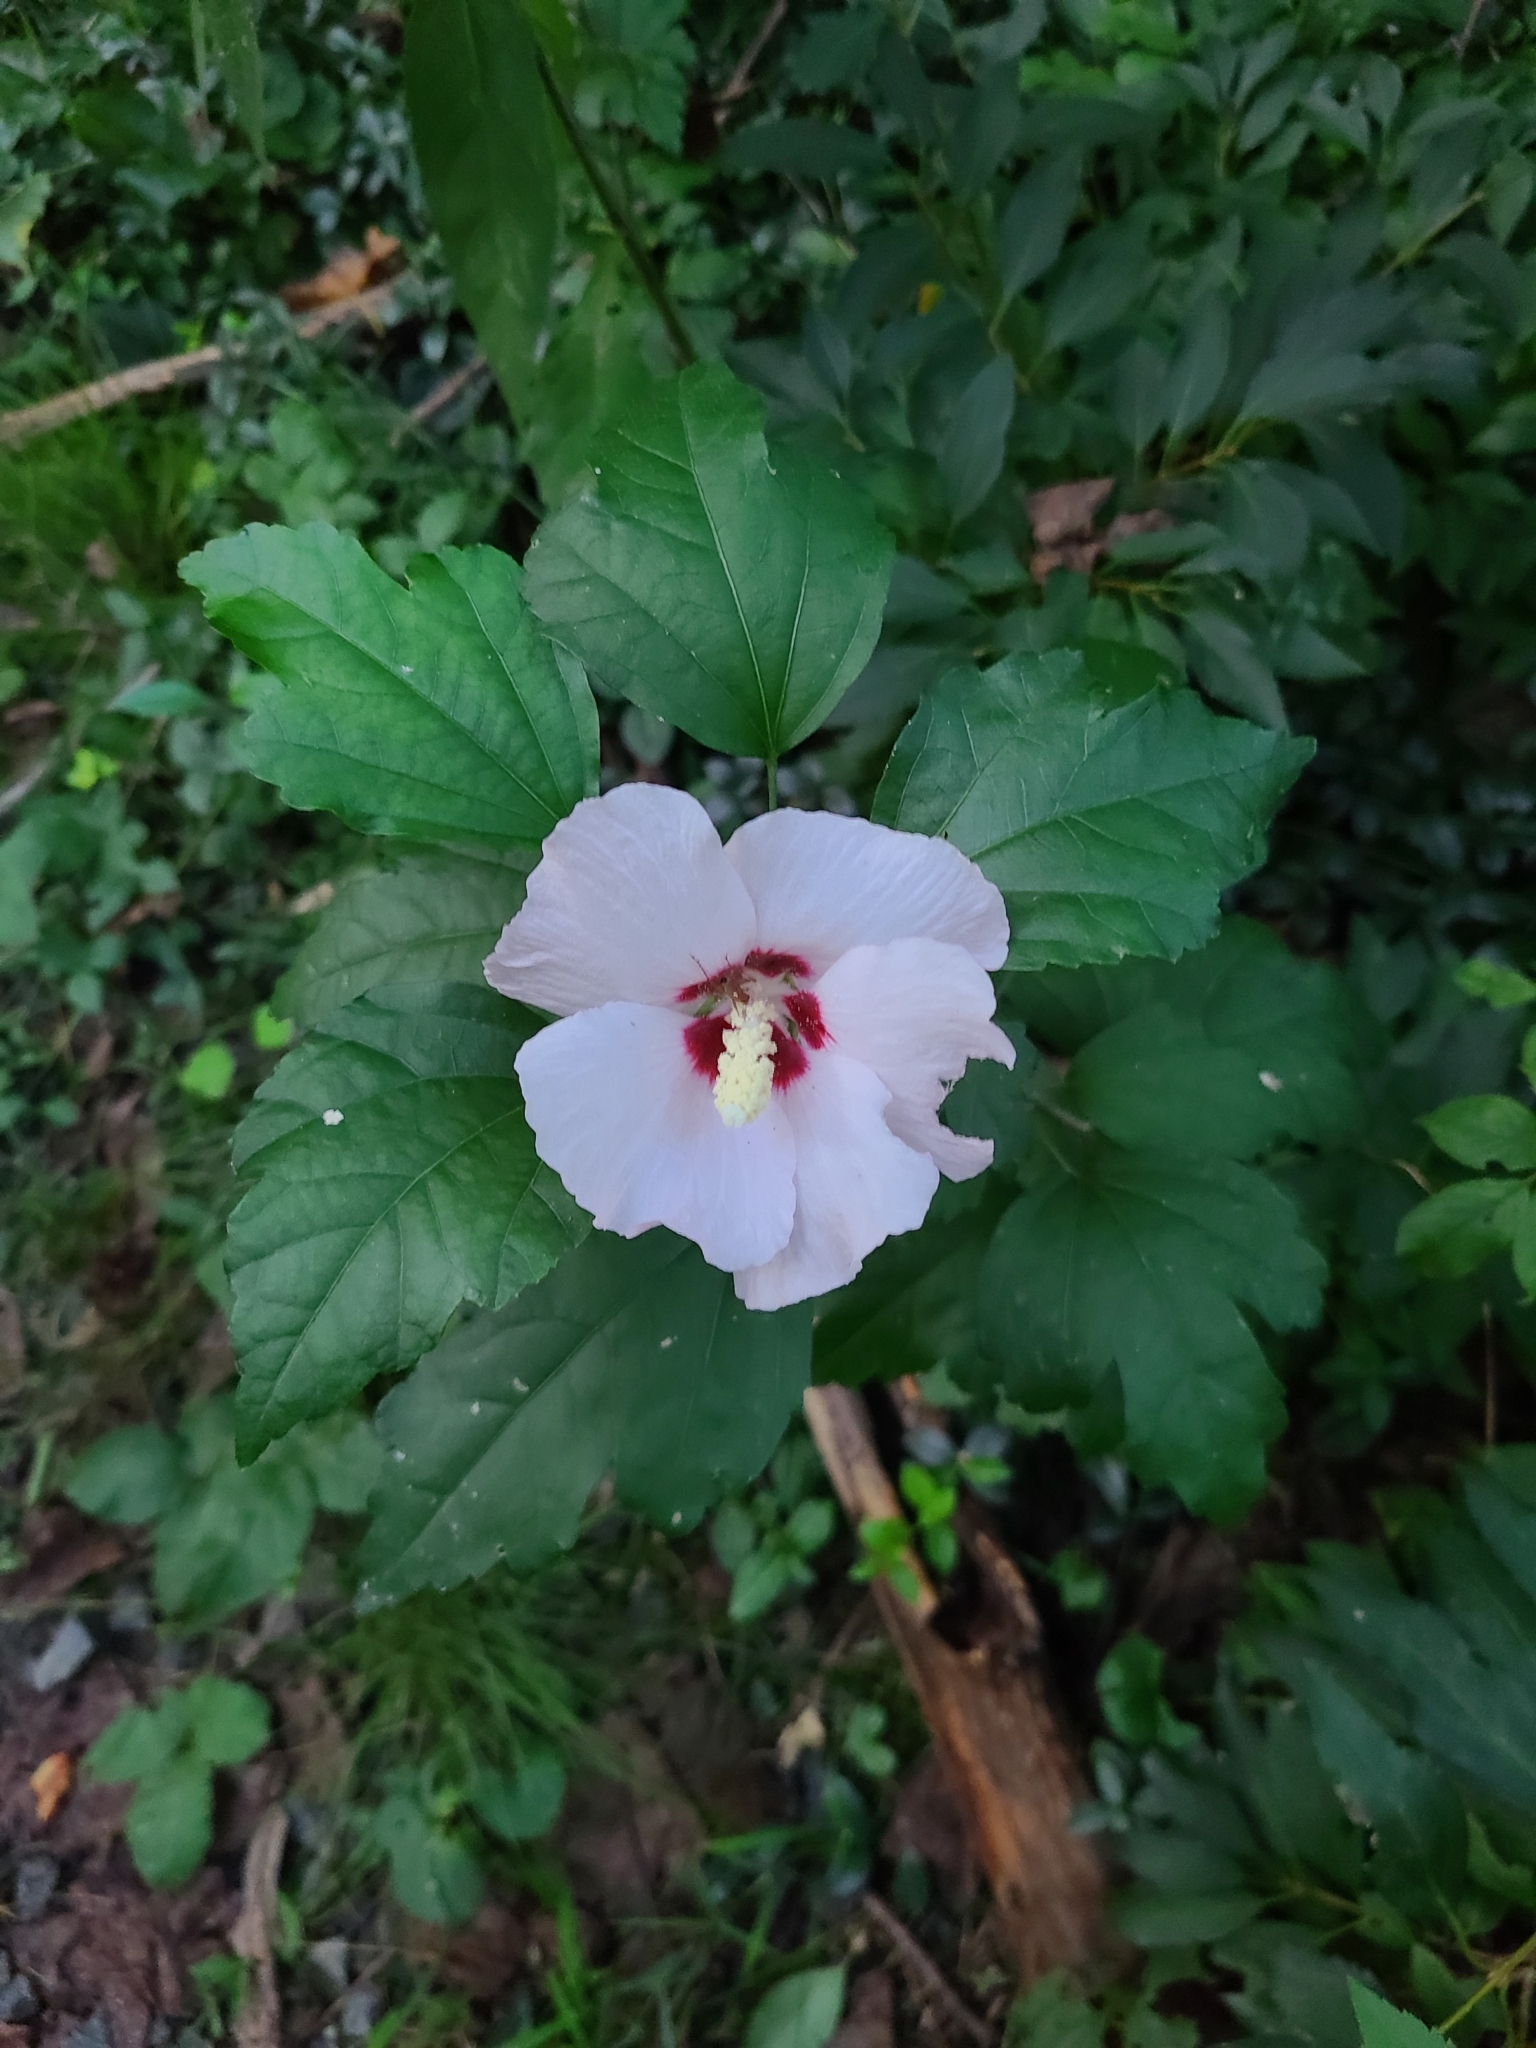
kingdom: Plantae
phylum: Tracheophyta
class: Magnoliopsida
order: Malvales
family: Malvaceae
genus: Hibiscus
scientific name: Hibiscus syriacus
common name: Syrian ketmia
